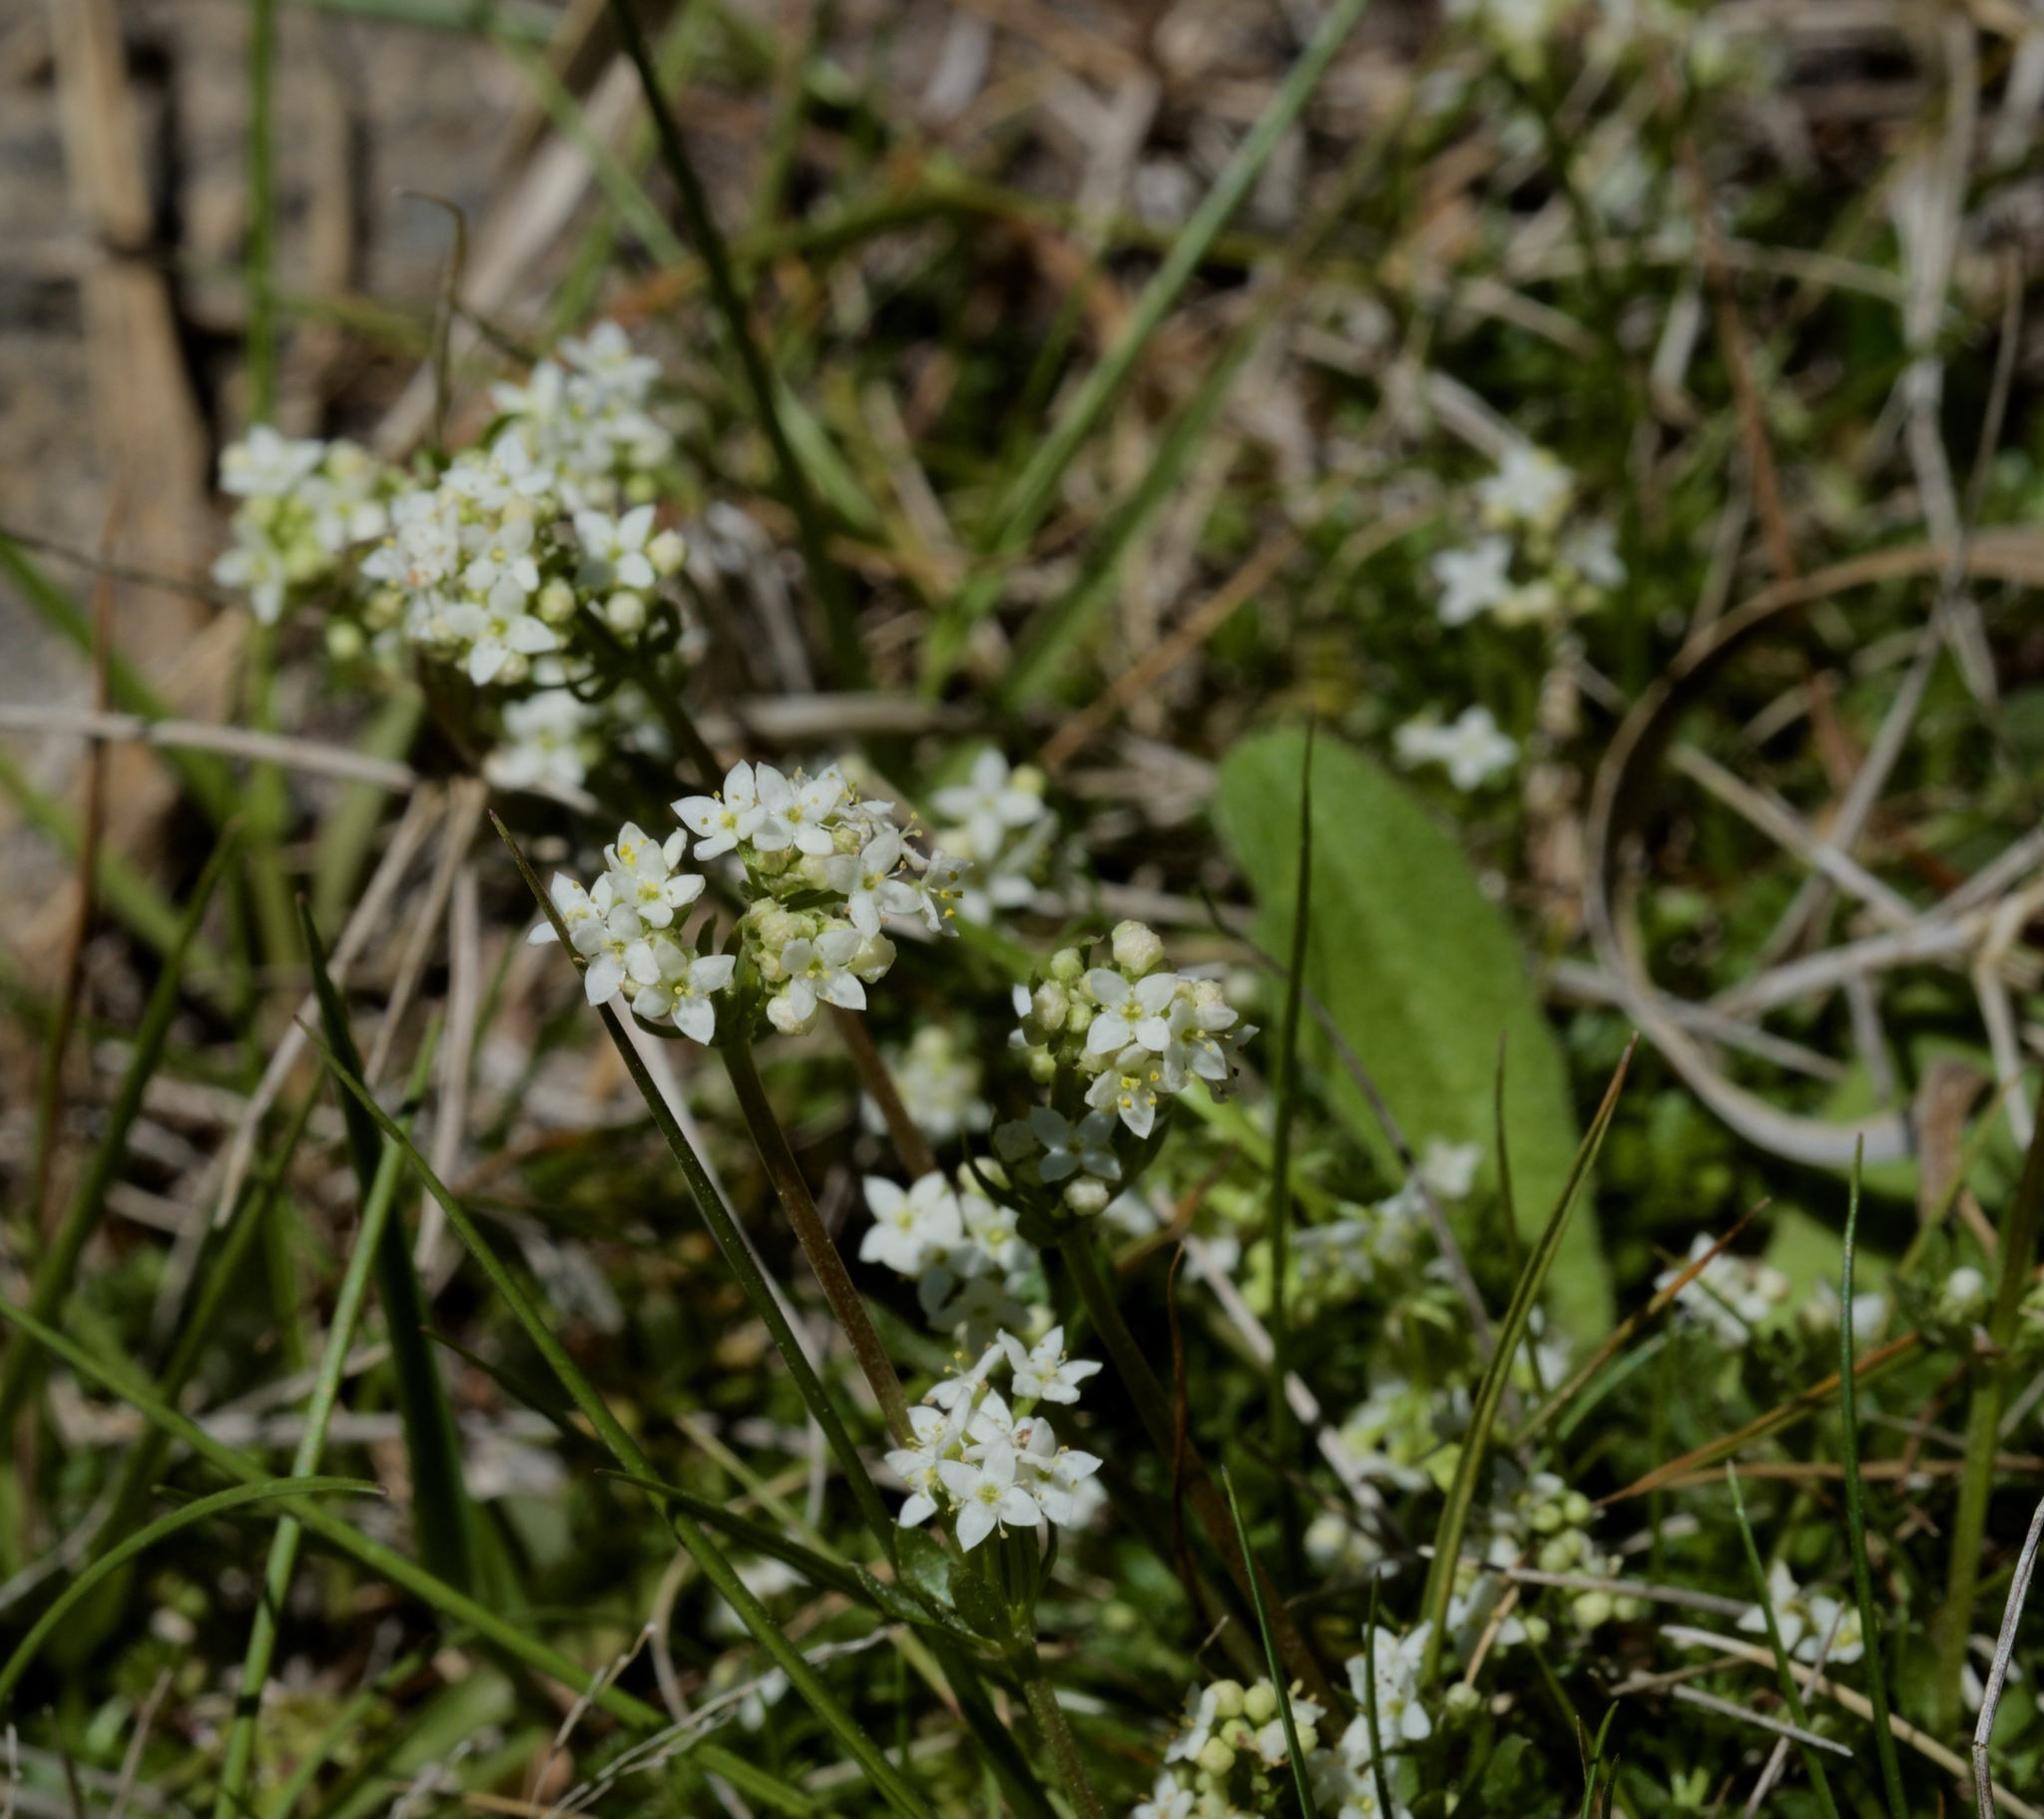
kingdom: Plantae
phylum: Tracheophyta
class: Magnoliopsida
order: Gentianales
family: Rubiaceae
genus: Galium
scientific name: Galium saxatile
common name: Heath bedstraw
